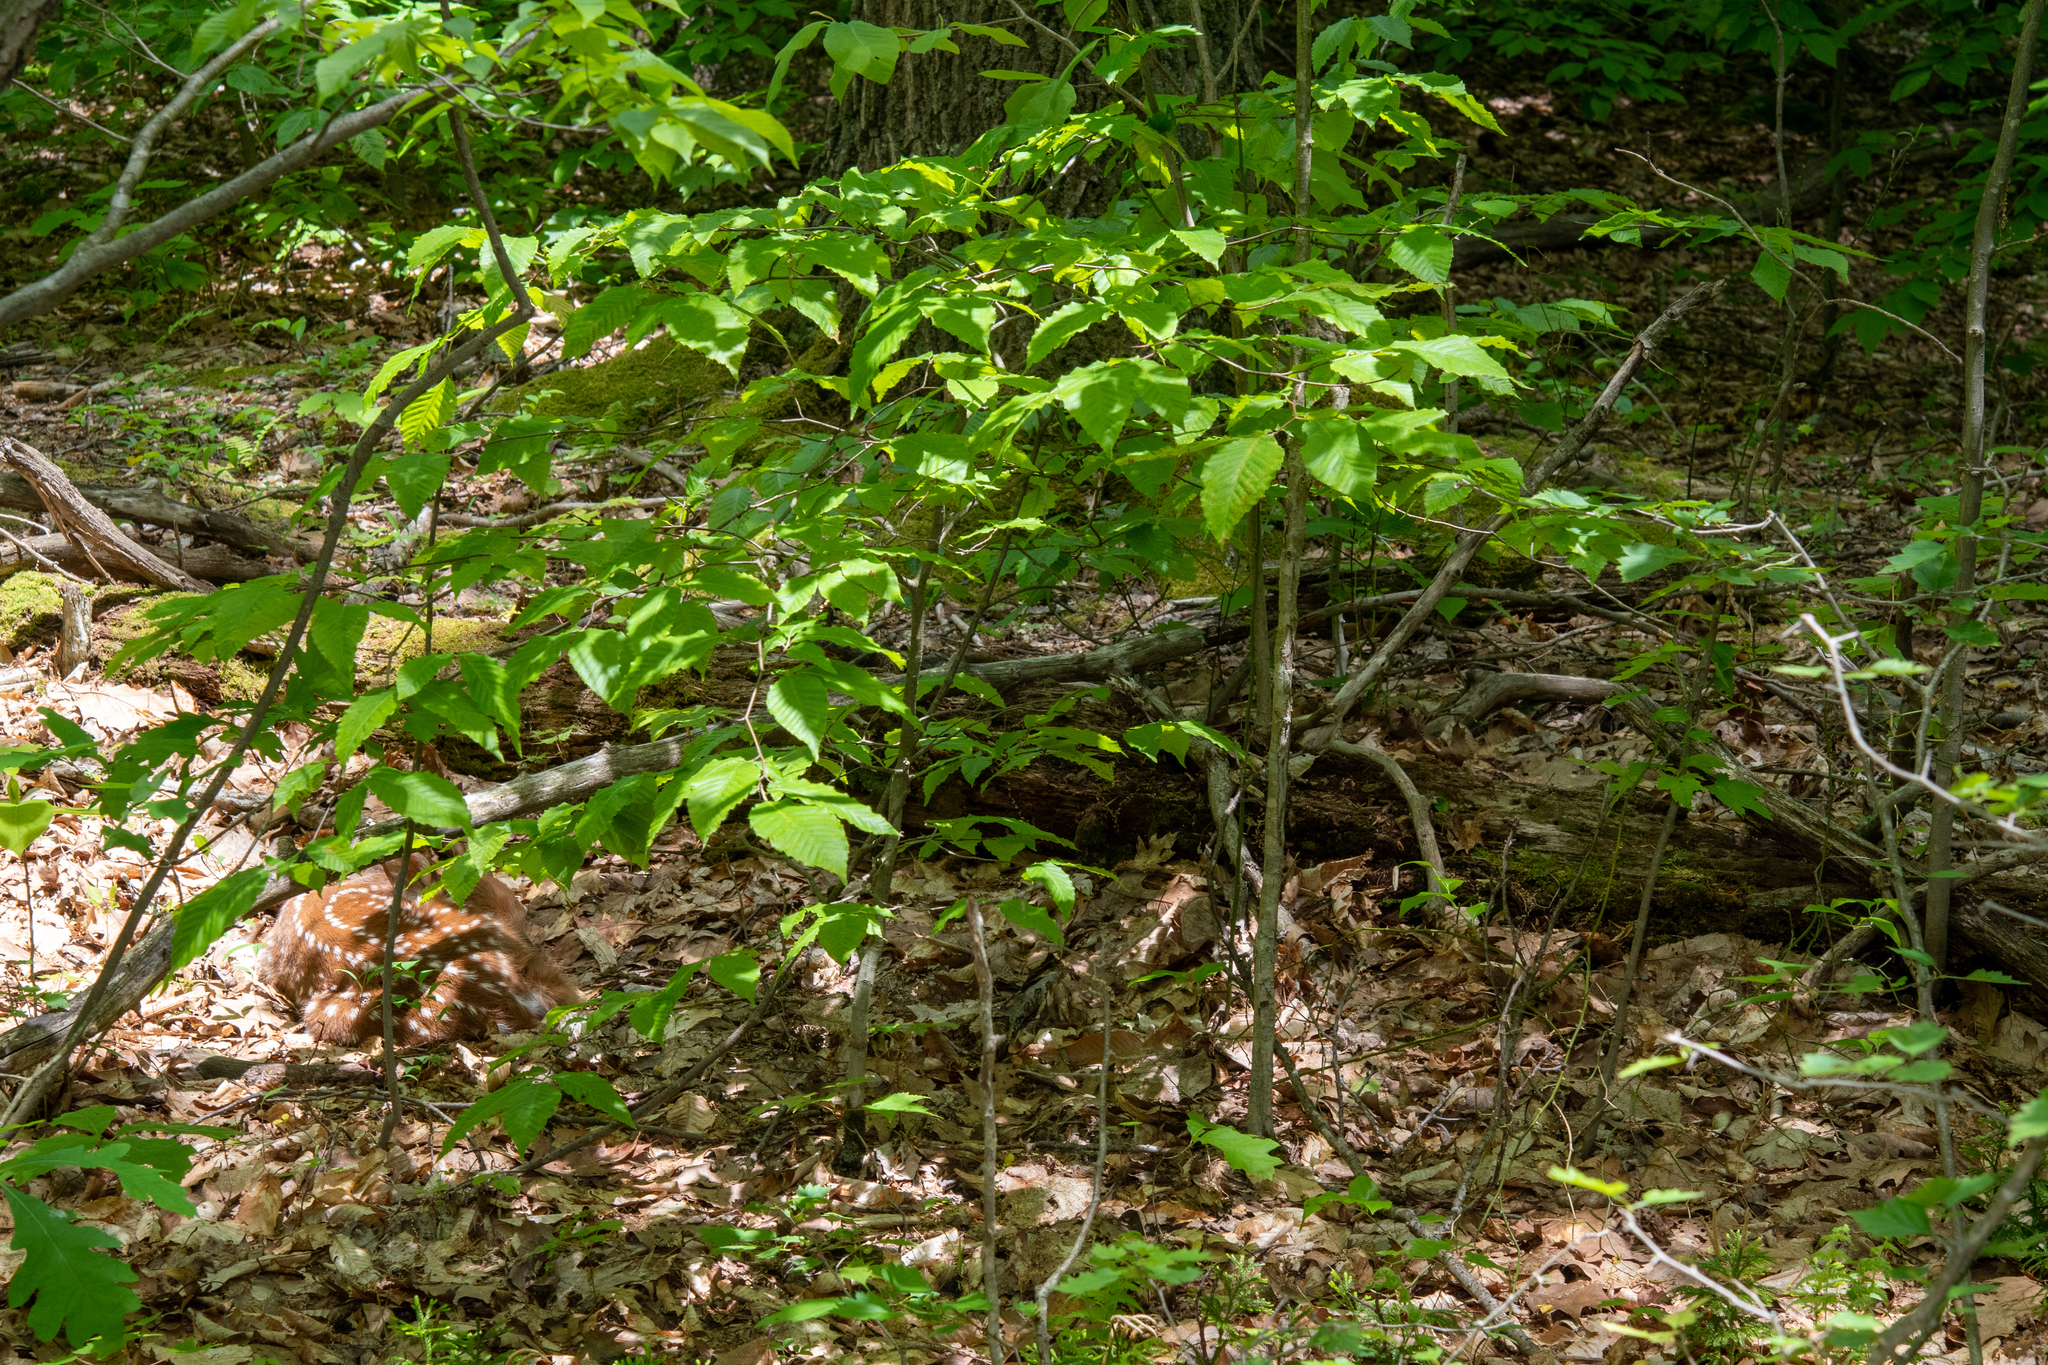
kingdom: Animalia
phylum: Chordata
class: Mammalia
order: Artiodactyla
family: Cervidae
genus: Odocoileus
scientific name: Odocoileus virginianus
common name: White-tailed deer
